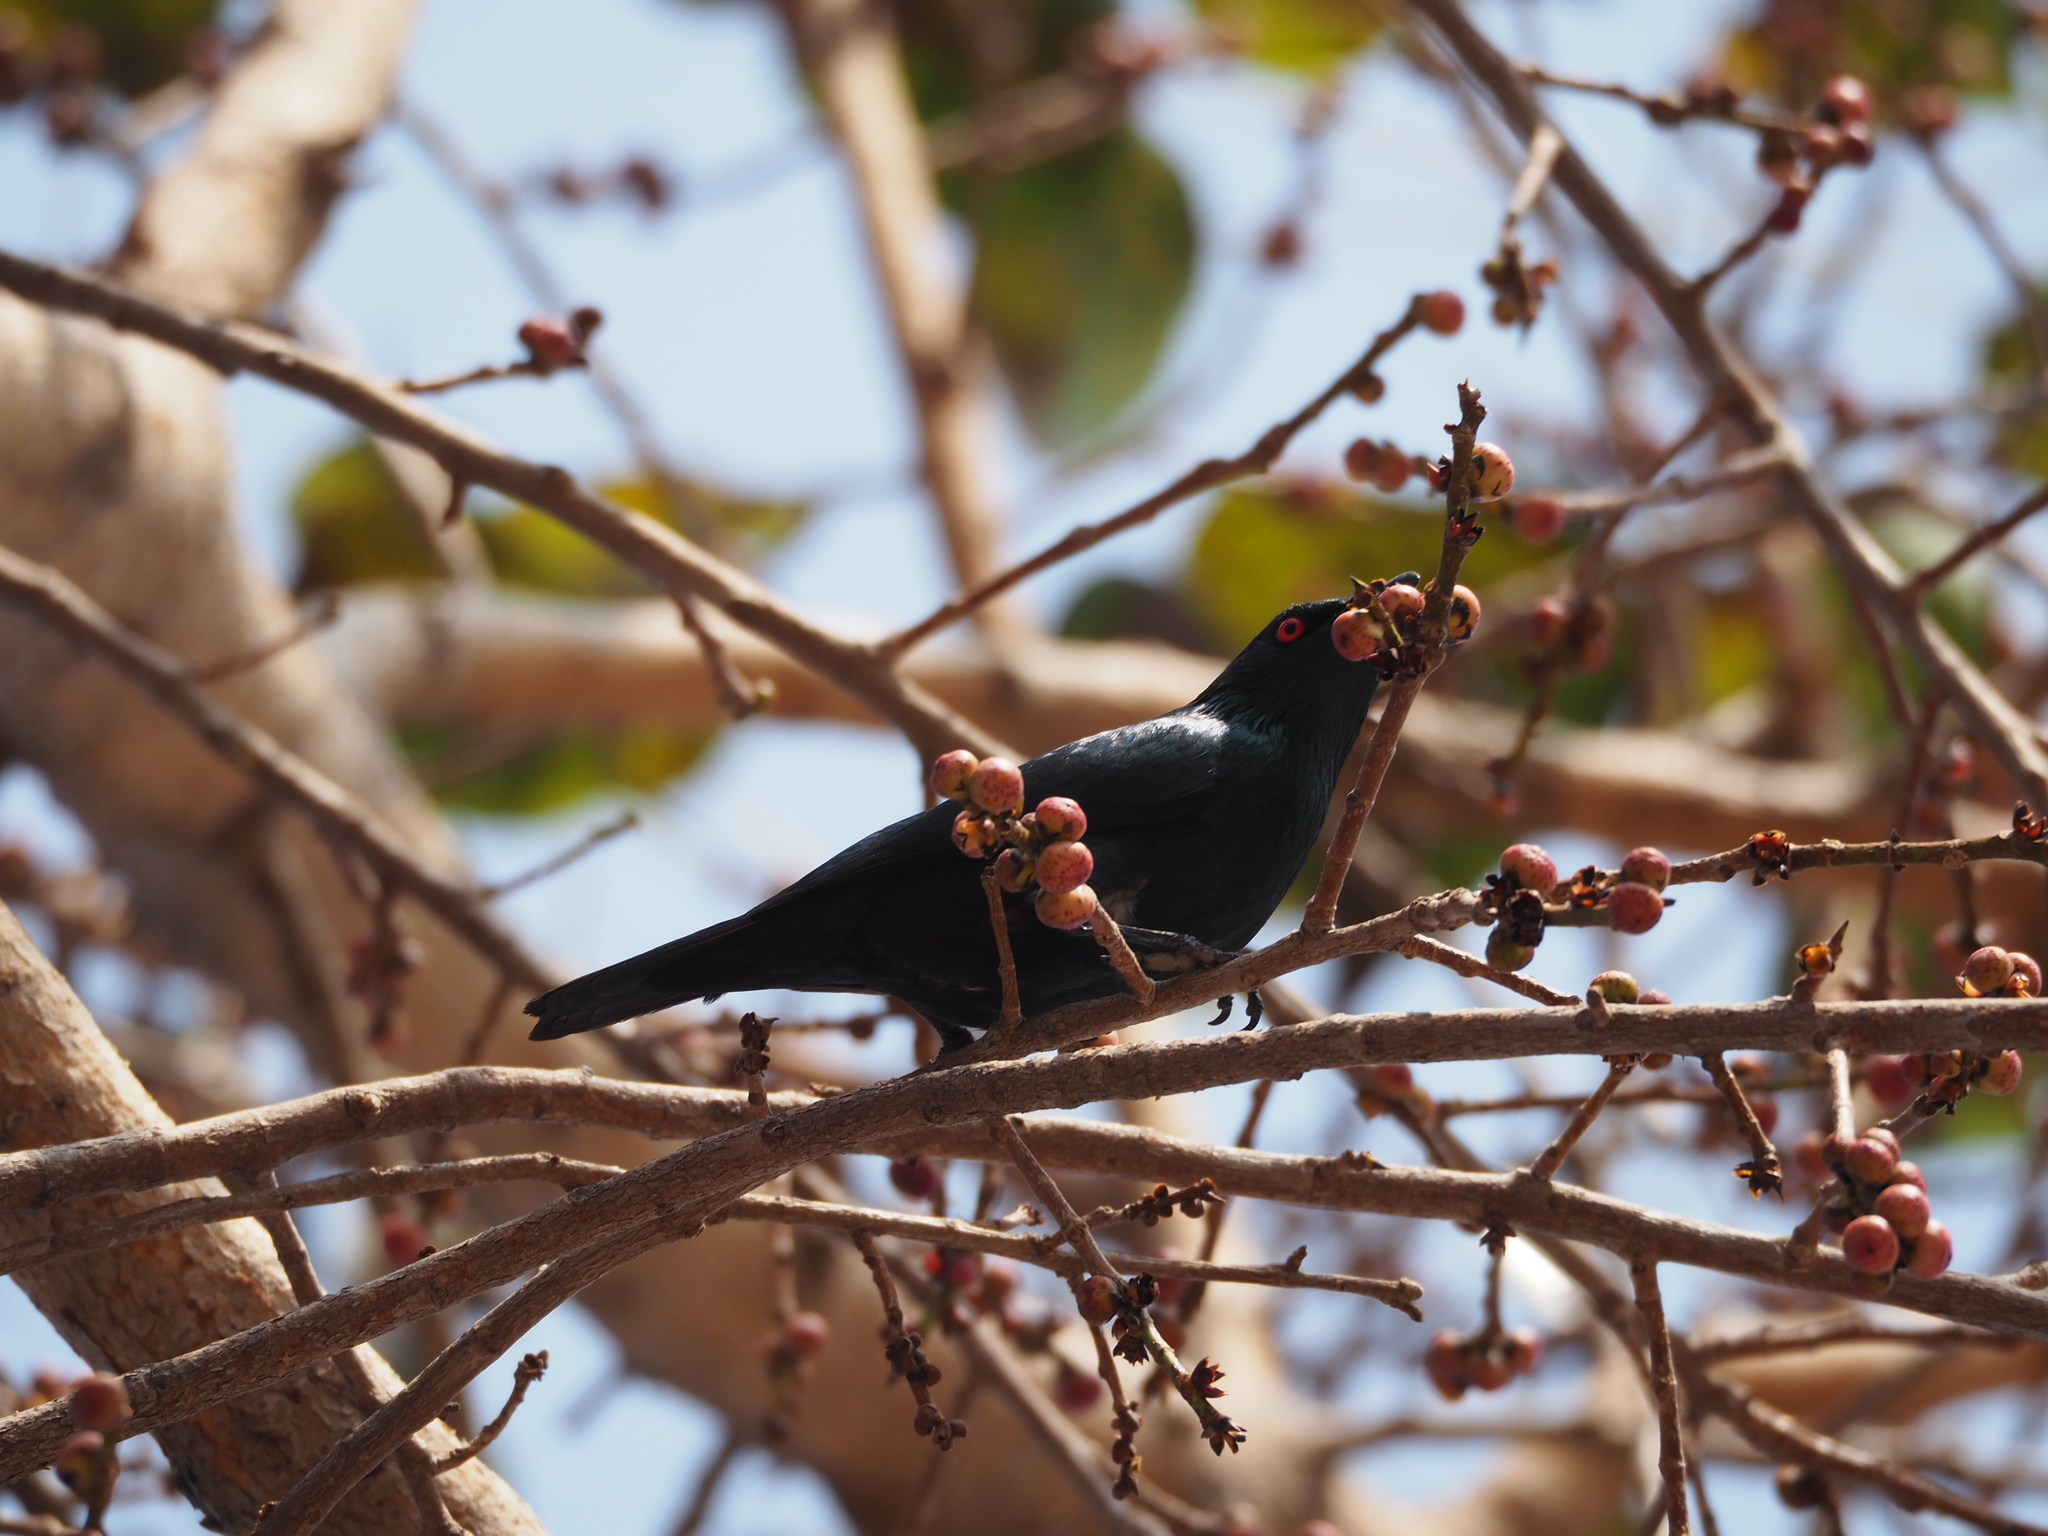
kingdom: Animalia
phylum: Chordata
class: Aves
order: Passeriformes
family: Sturnidae
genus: Aplonis
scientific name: Aplonis panayensis
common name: Asian glossy starling
